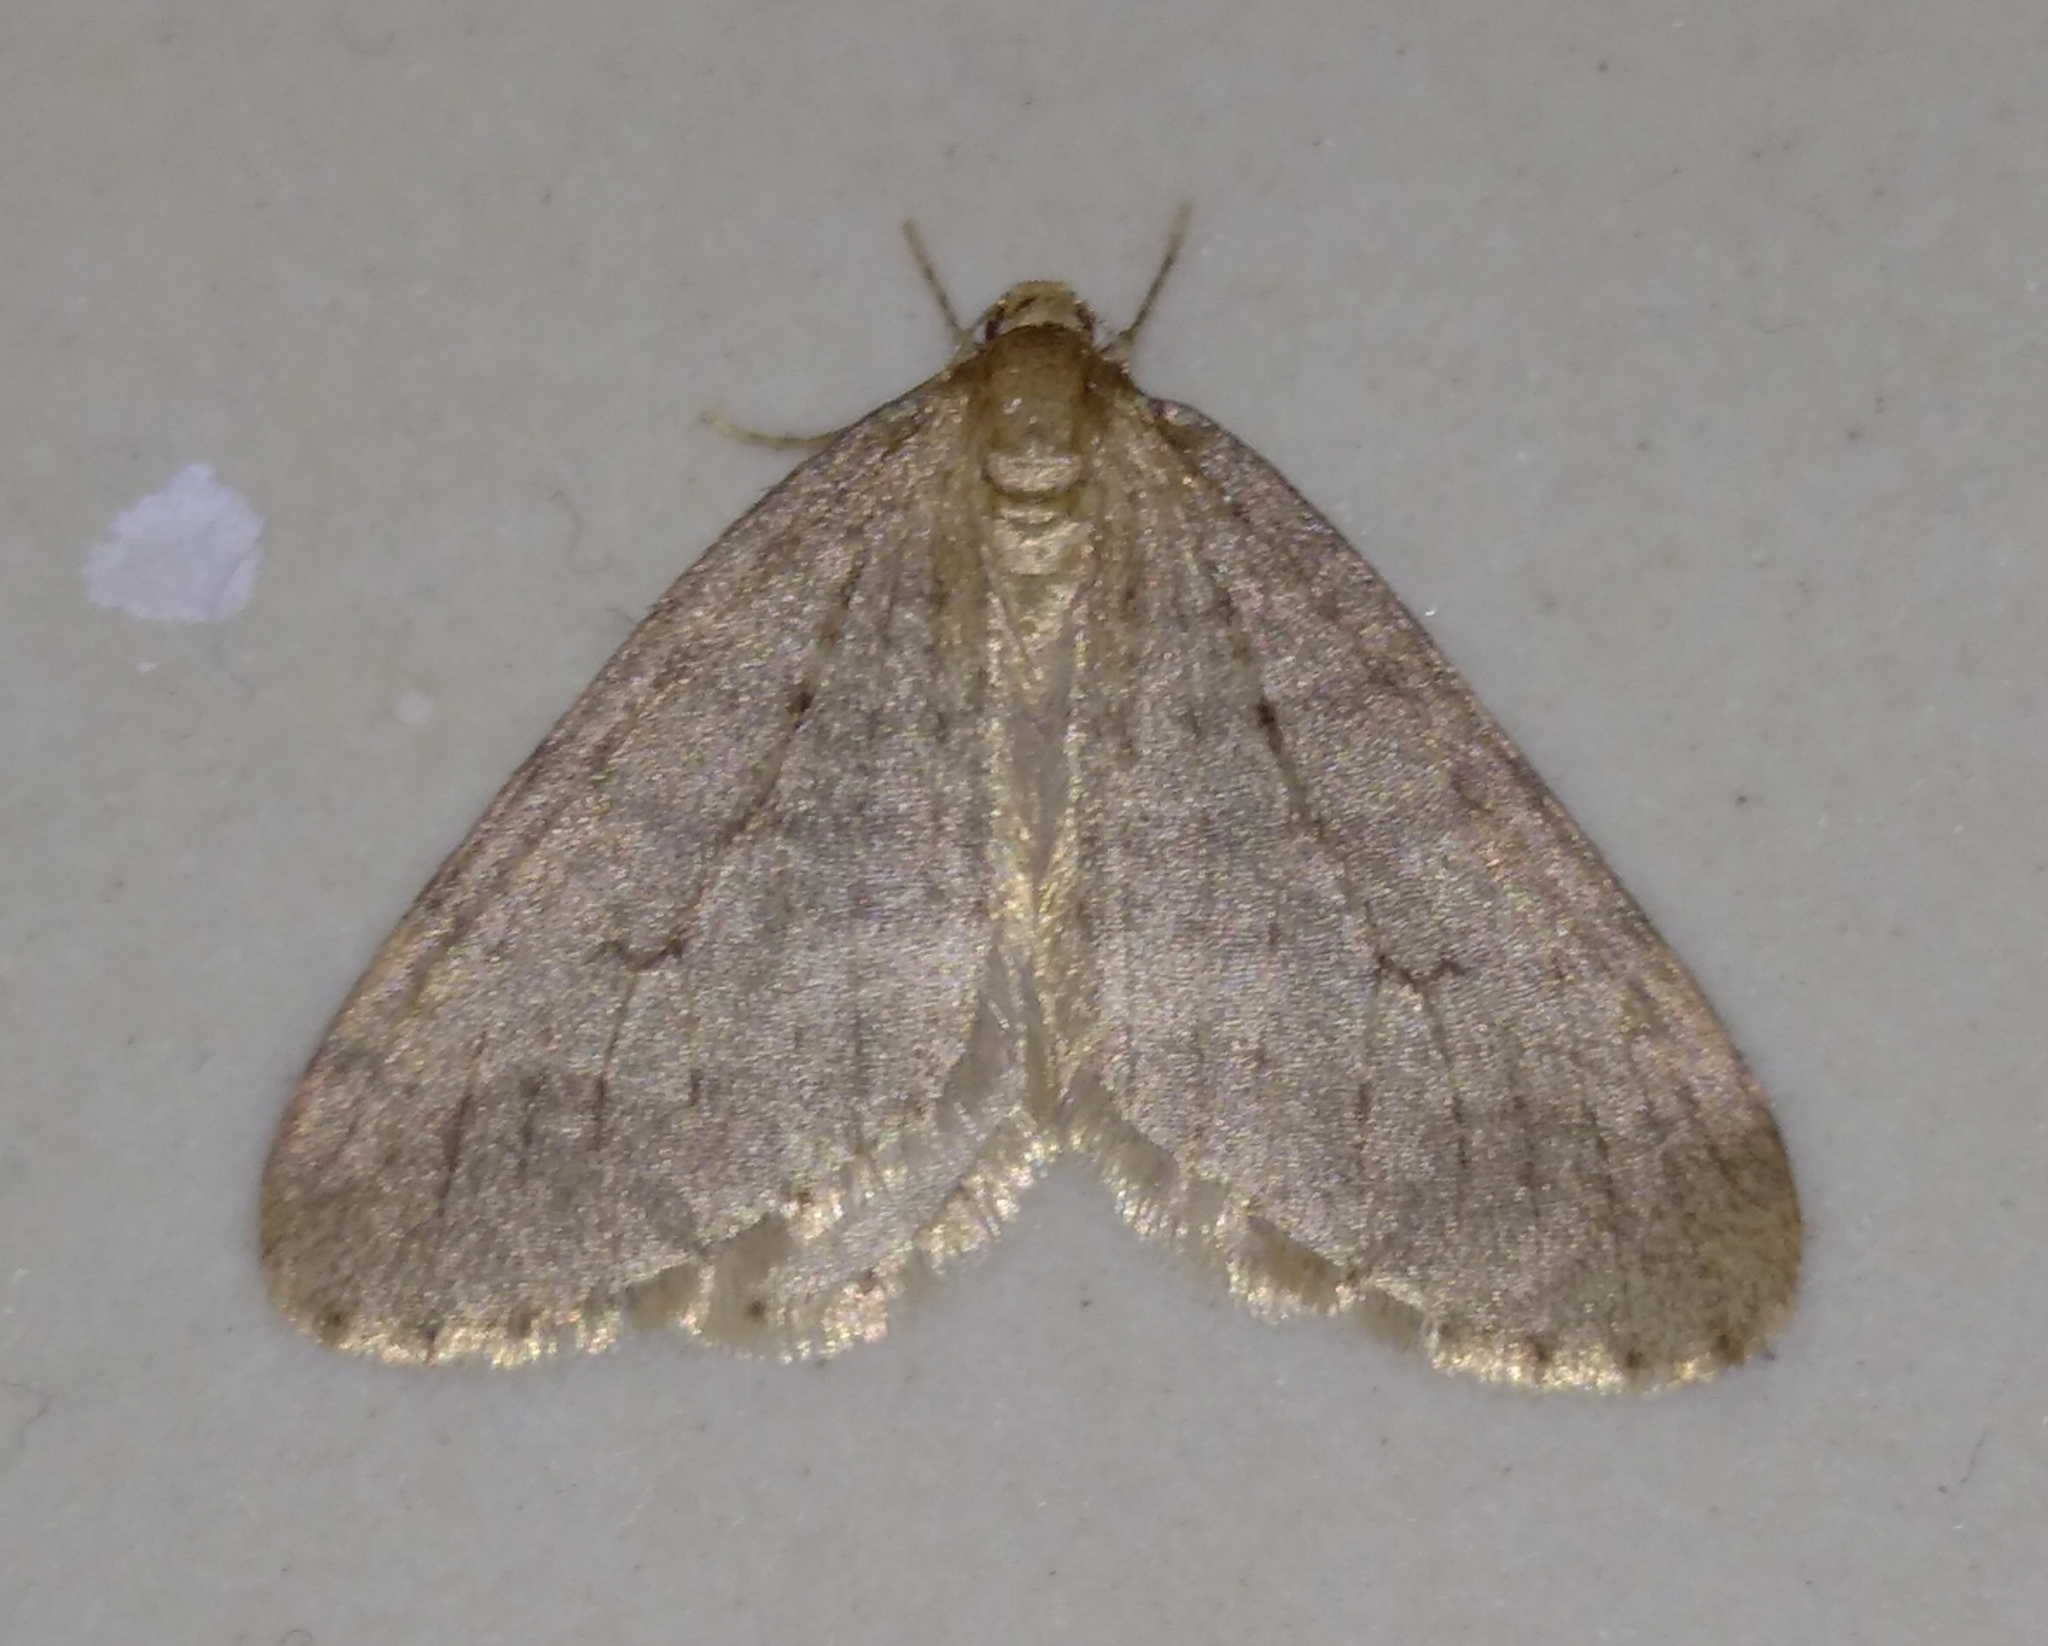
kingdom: Animalia
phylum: Arthropoda
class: Insecta
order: Lepidoptera
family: Geometridae
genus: Operophtera
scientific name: Operophtera brumata
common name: Winter moth
